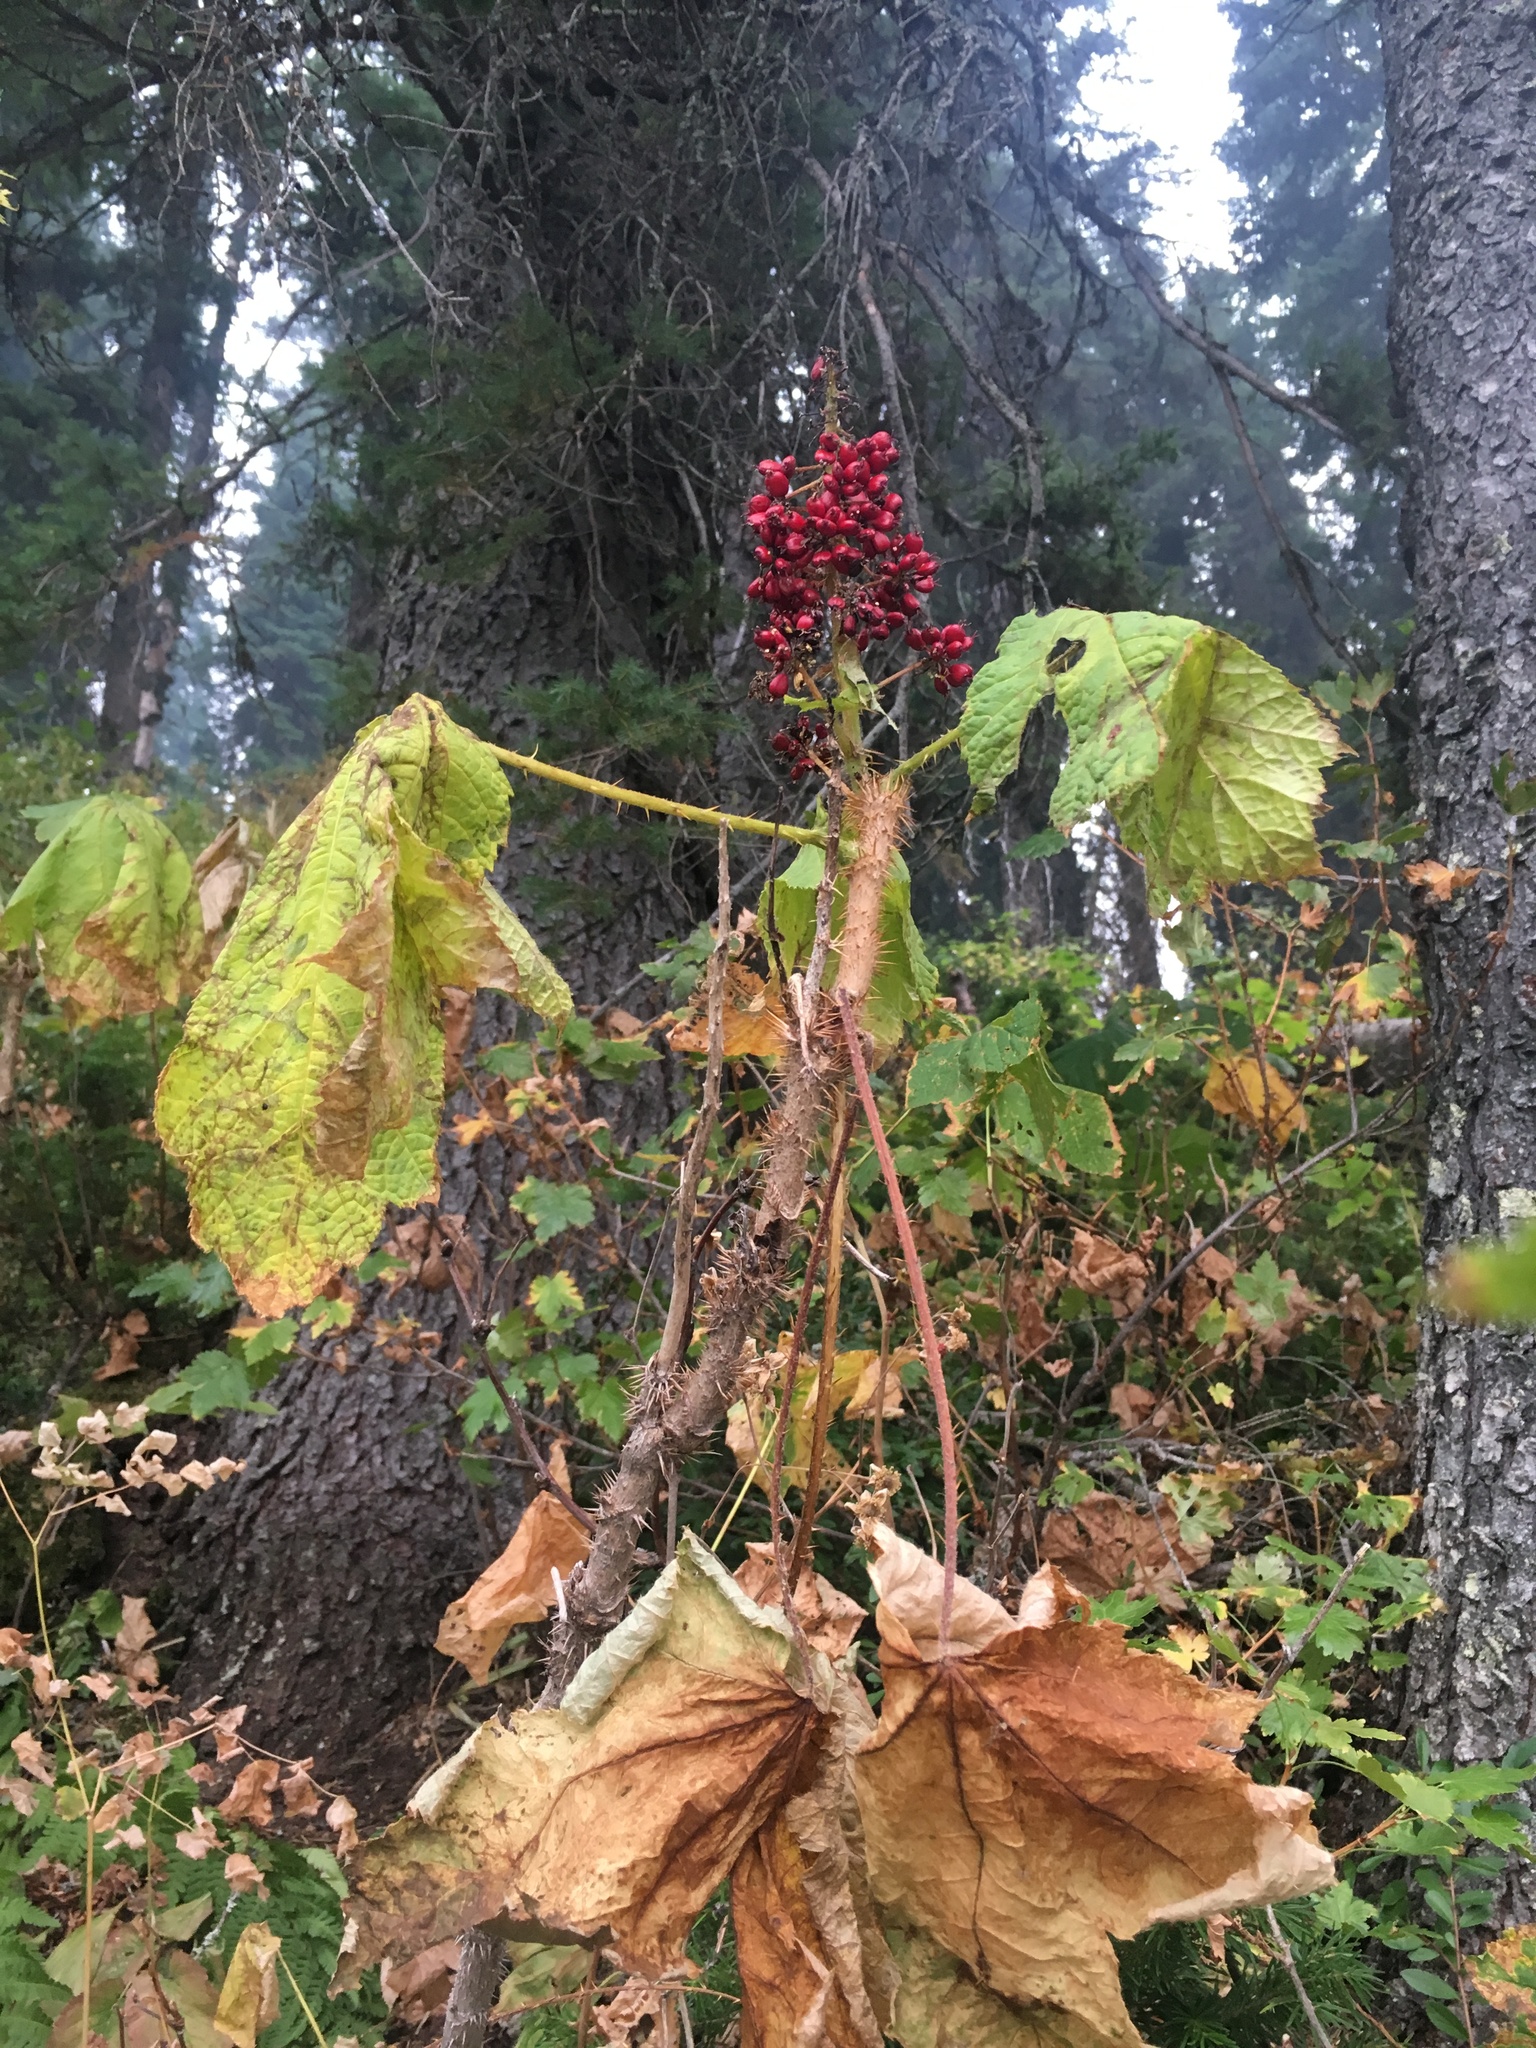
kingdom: Plantae
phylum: Tracheophyta
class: Magnoliopsida
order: Apiales
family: Araliaceae
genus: Oplopanax
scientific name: Oplopanax horridus
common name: Devil's walking-stick
